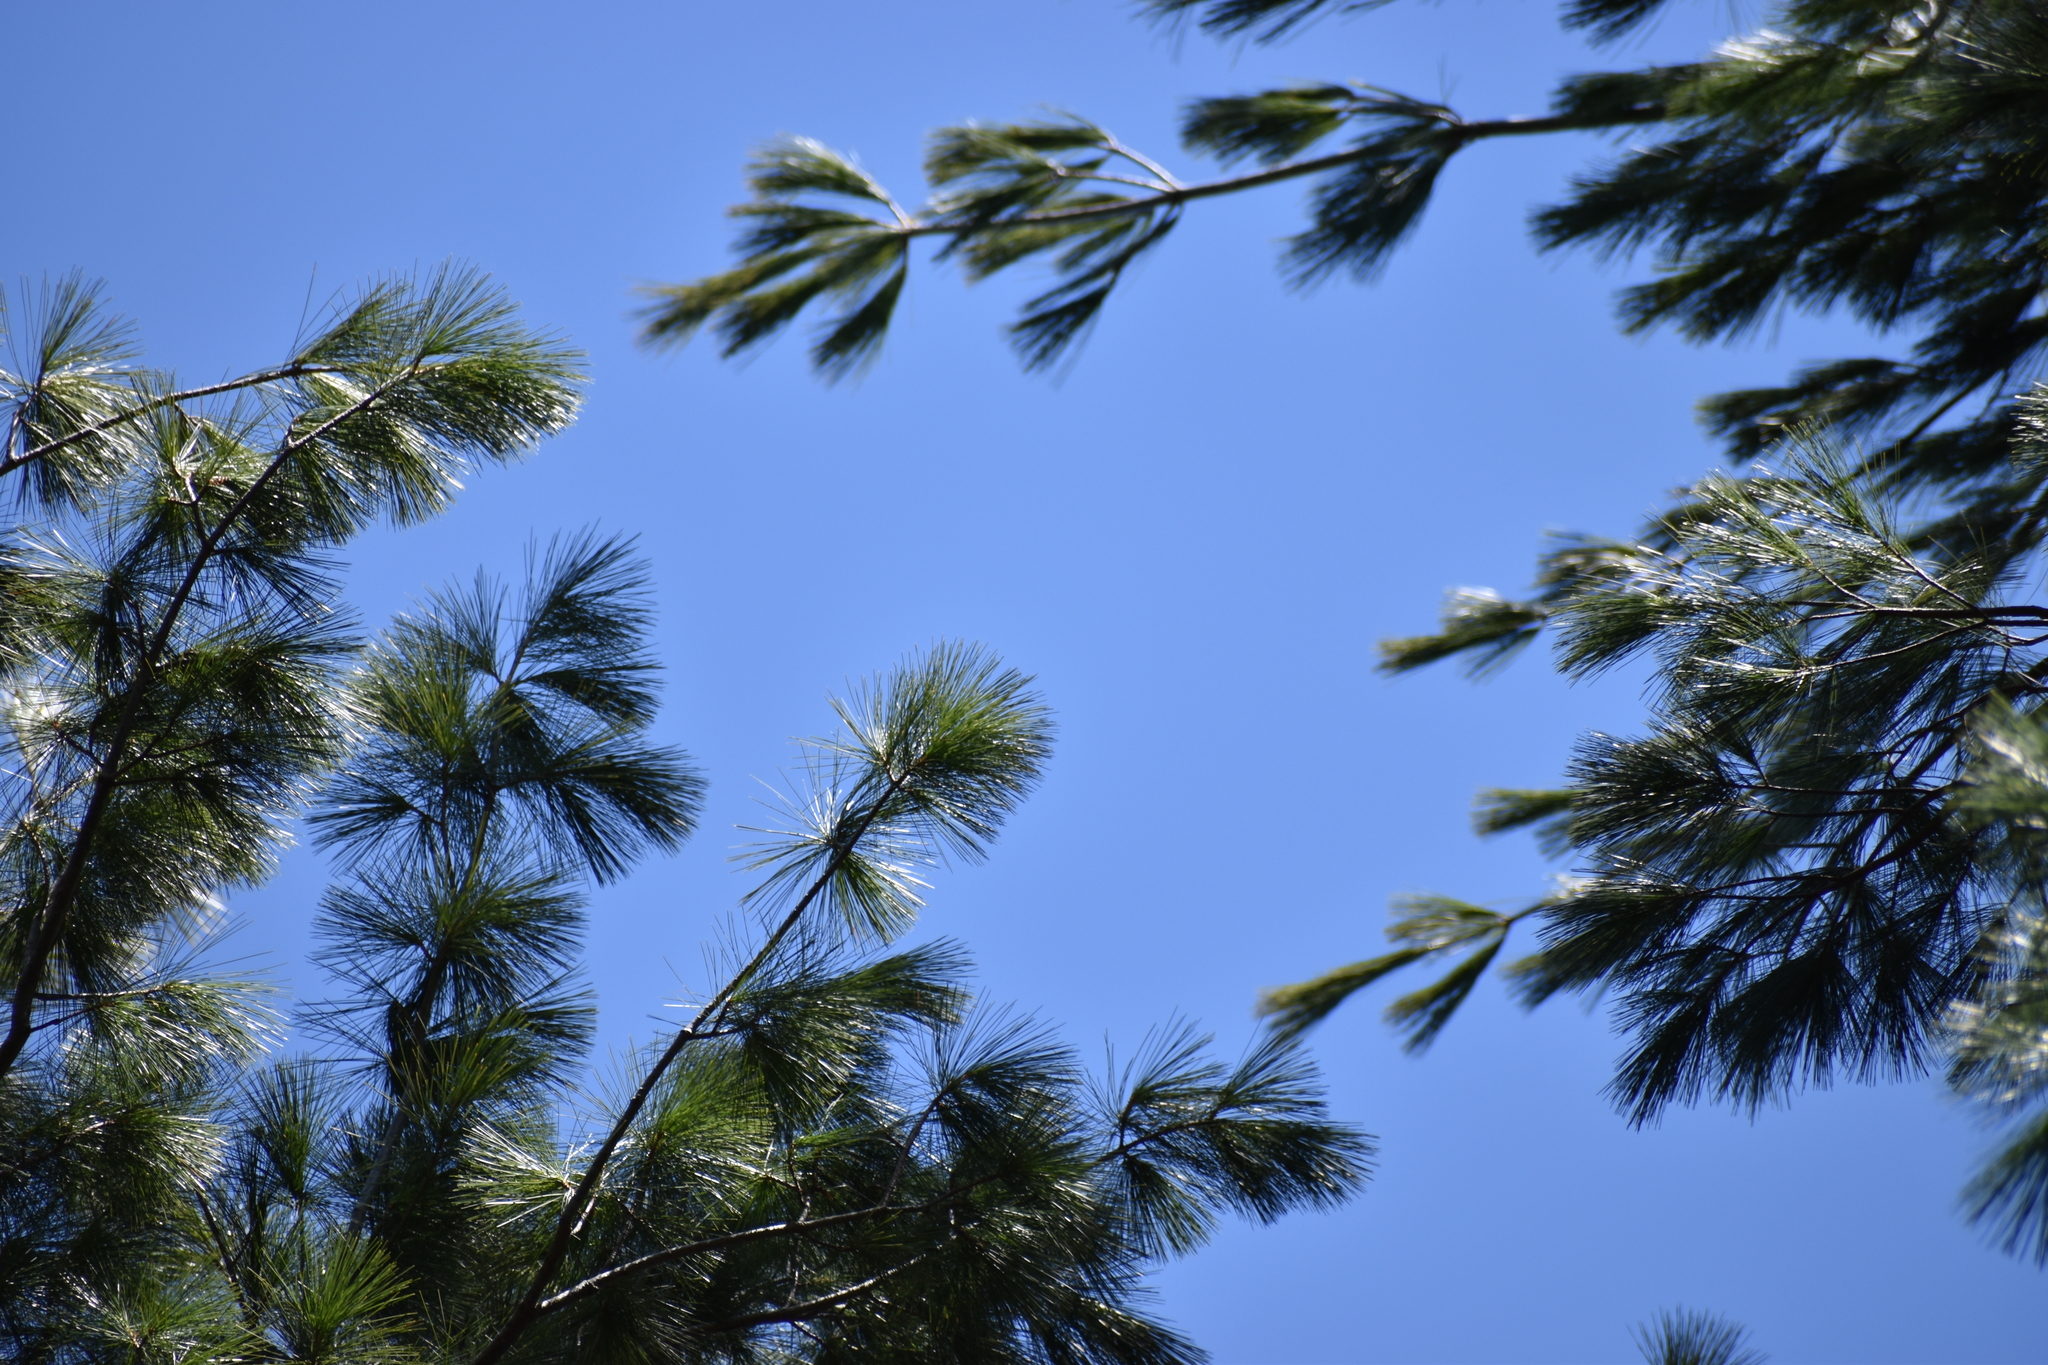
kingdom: Plantae
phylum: Tracheophyta
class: Pinopsida
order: Pinales
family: Pinaceae
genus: Pinus
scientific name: Pinus strobus
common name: Weymouth pine
